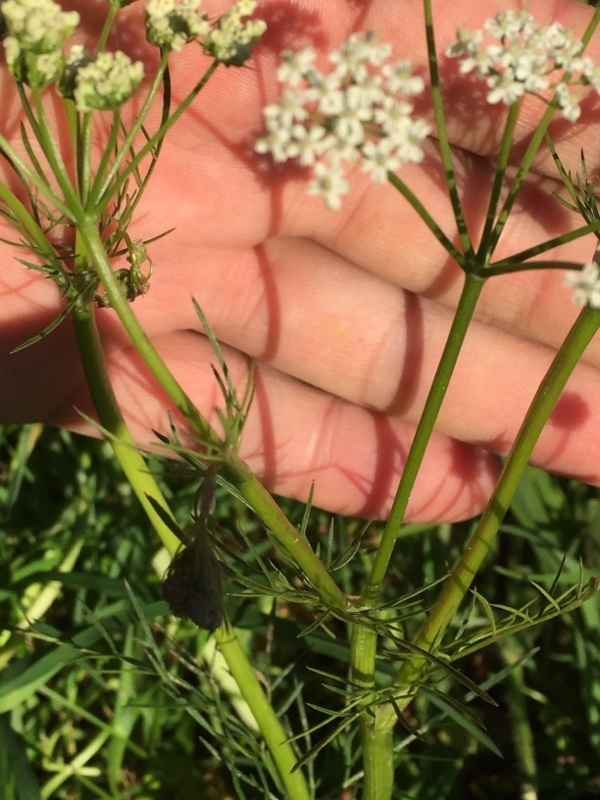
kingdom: Plantae
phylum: Tracheophyta
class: Magnoliopsida
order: Apiales
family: Apiaceae
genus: Conopodium
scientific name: Conopodium majus
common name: Pignut
